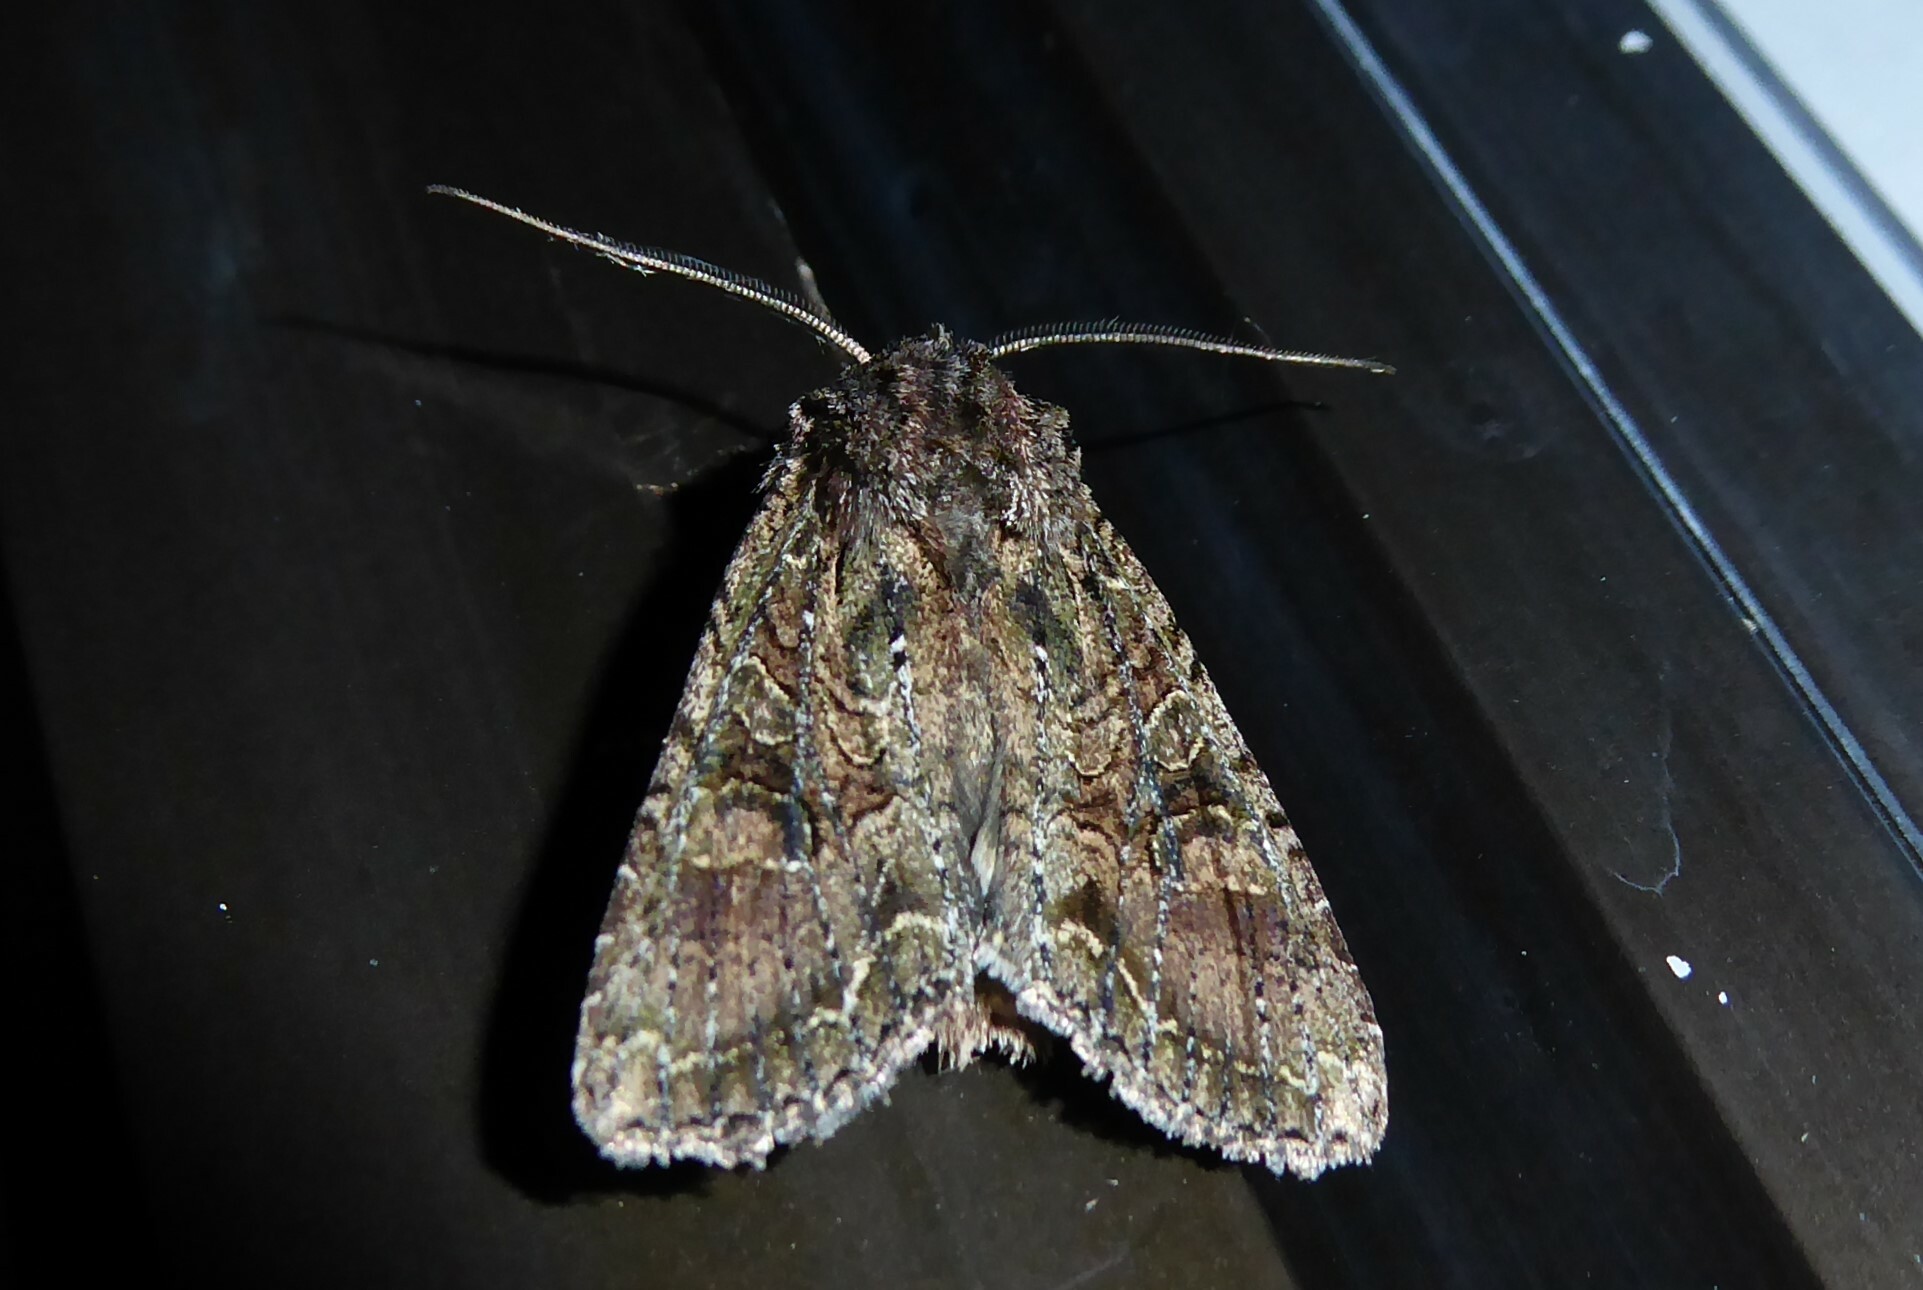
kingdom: Animalia
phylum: Arthropoda
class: Insecta
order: Lepidoptera
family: Noctuidae
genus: Ichneutica
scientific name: Ichneutica mutans
